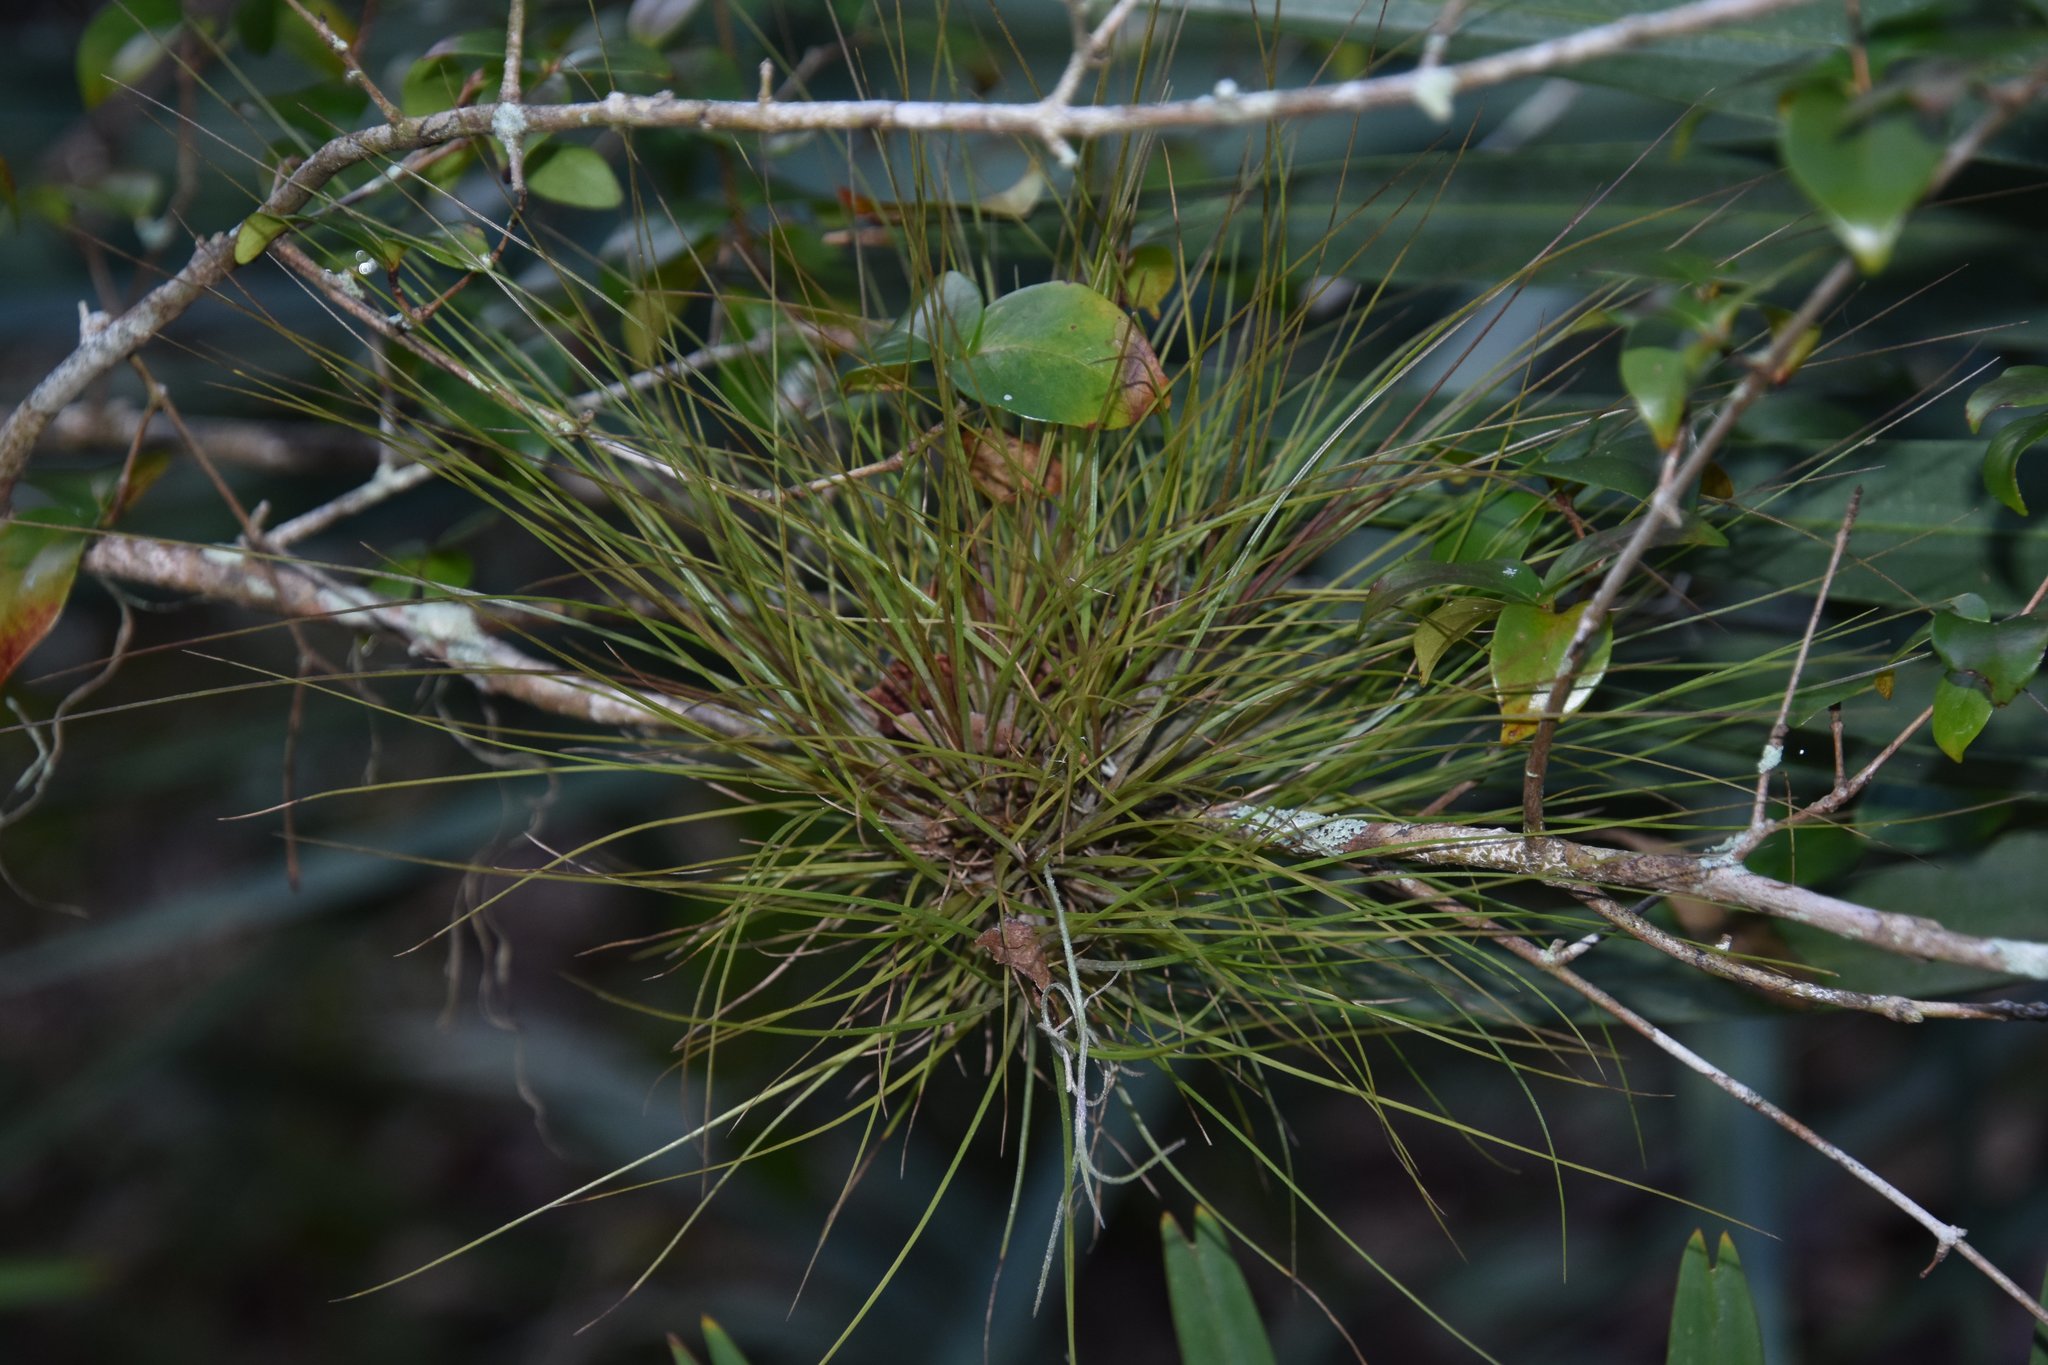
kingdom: Plantae
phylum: Tracheophyta
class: Liliopsida
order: Poales
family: Bromeliaceae
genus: Tillandsia
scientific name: Tillandsia setacea
